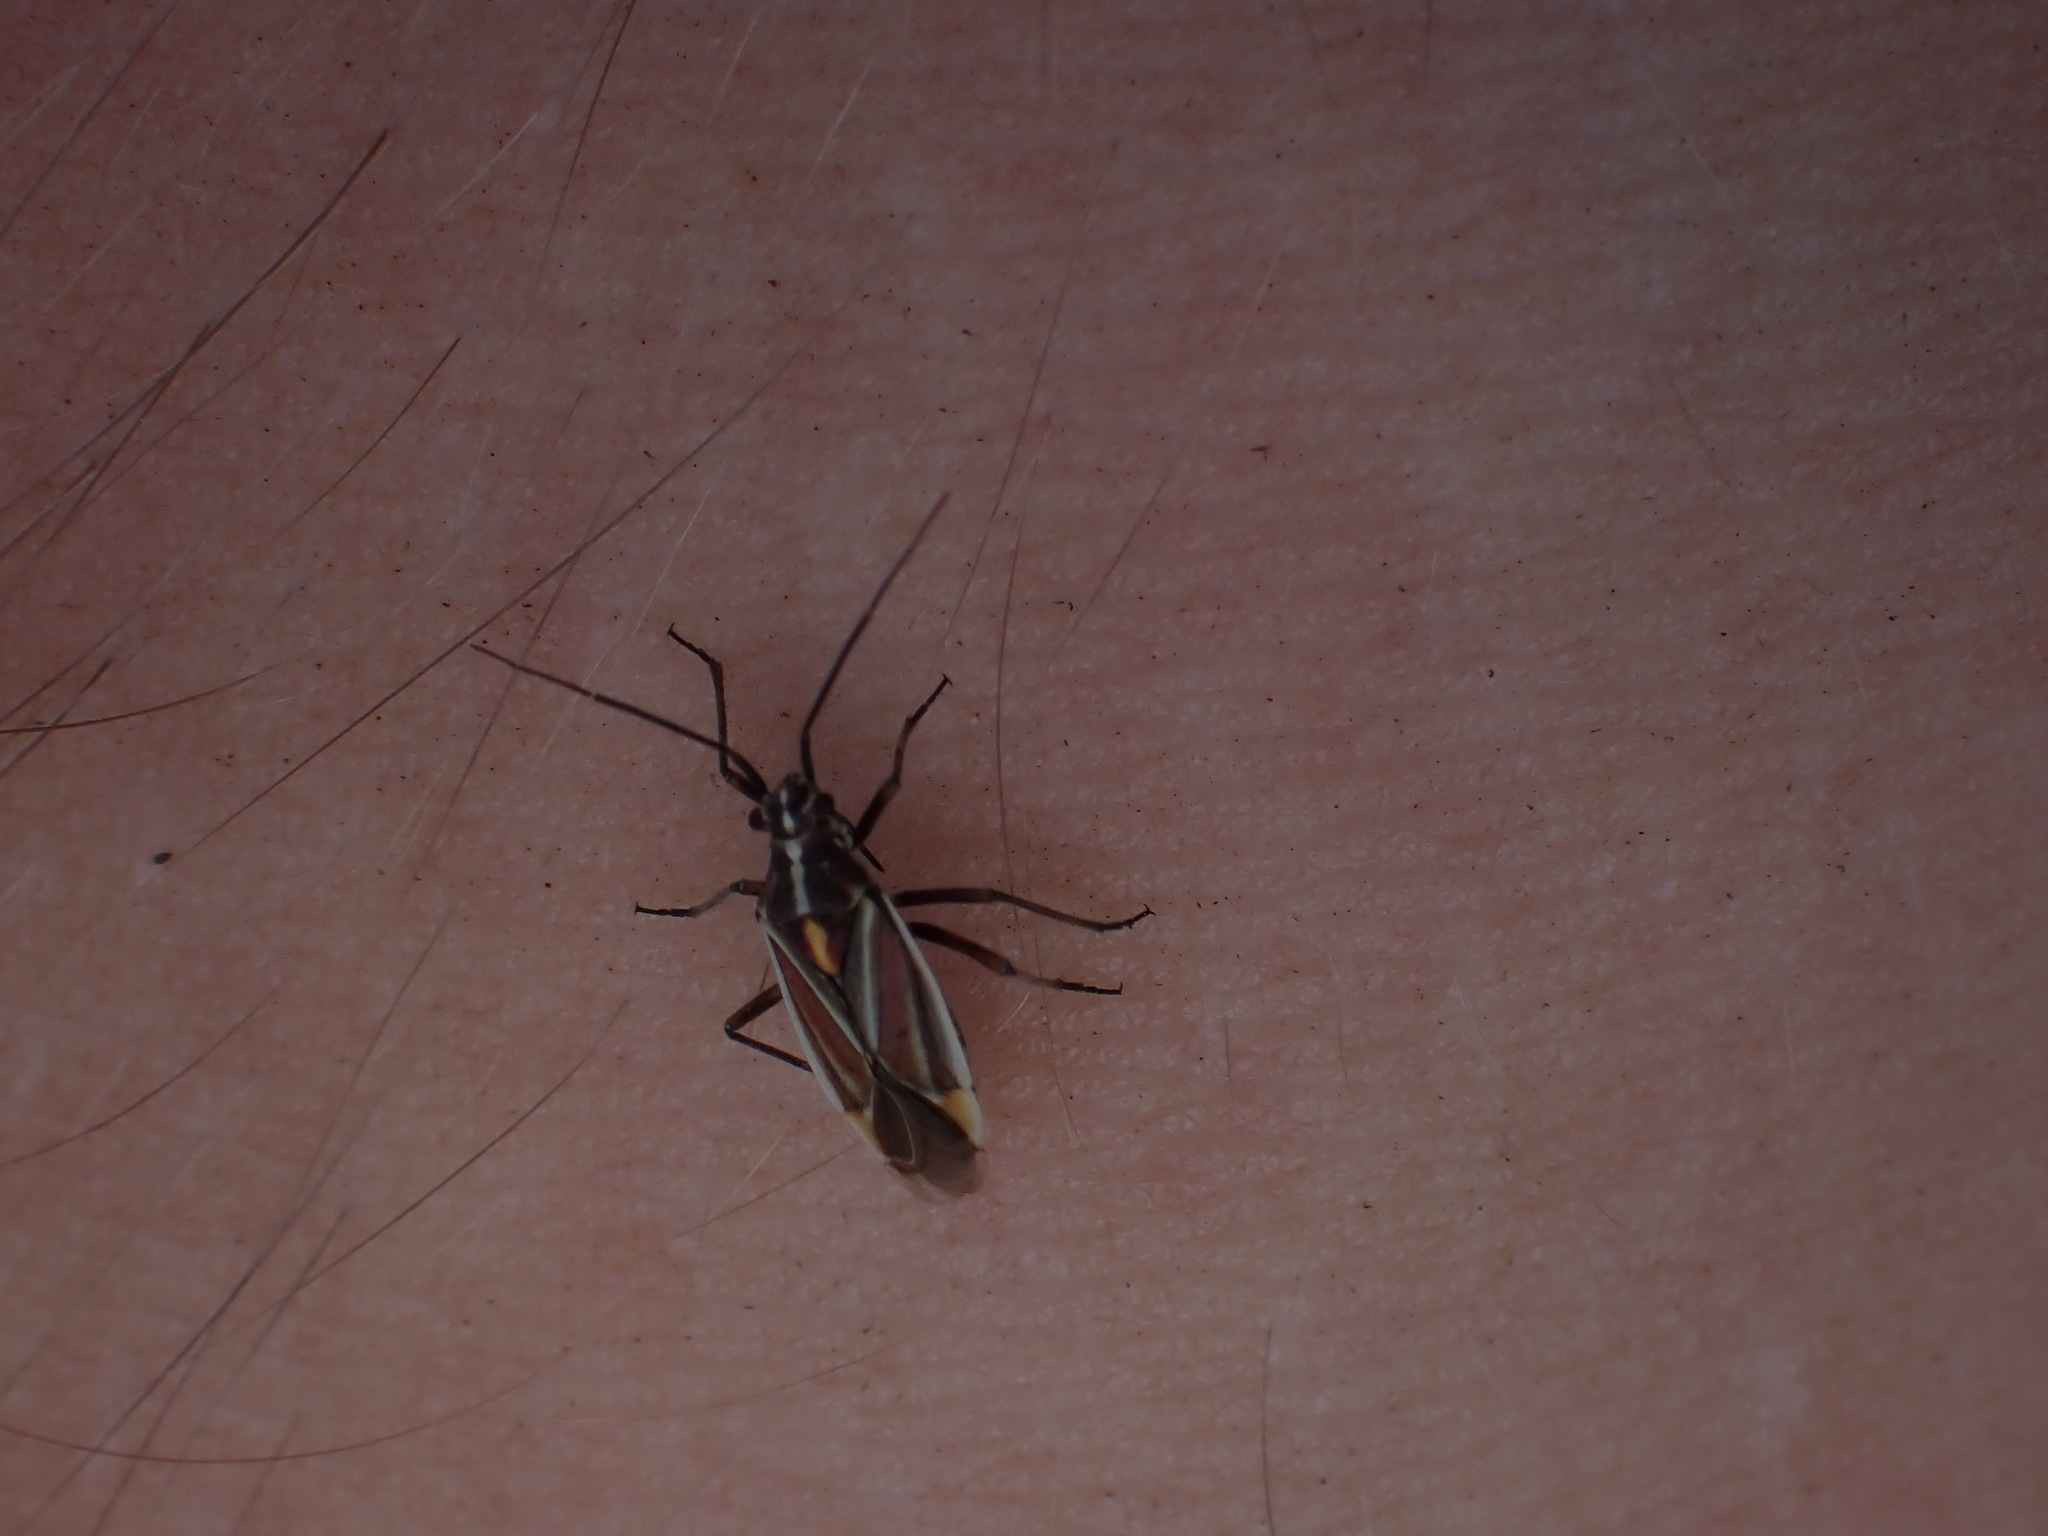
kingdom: Animalia
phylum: Arthropoda
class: Insecta
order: Hemiptera
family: Miridae
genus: Horistus
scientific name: Horistus orientalis
